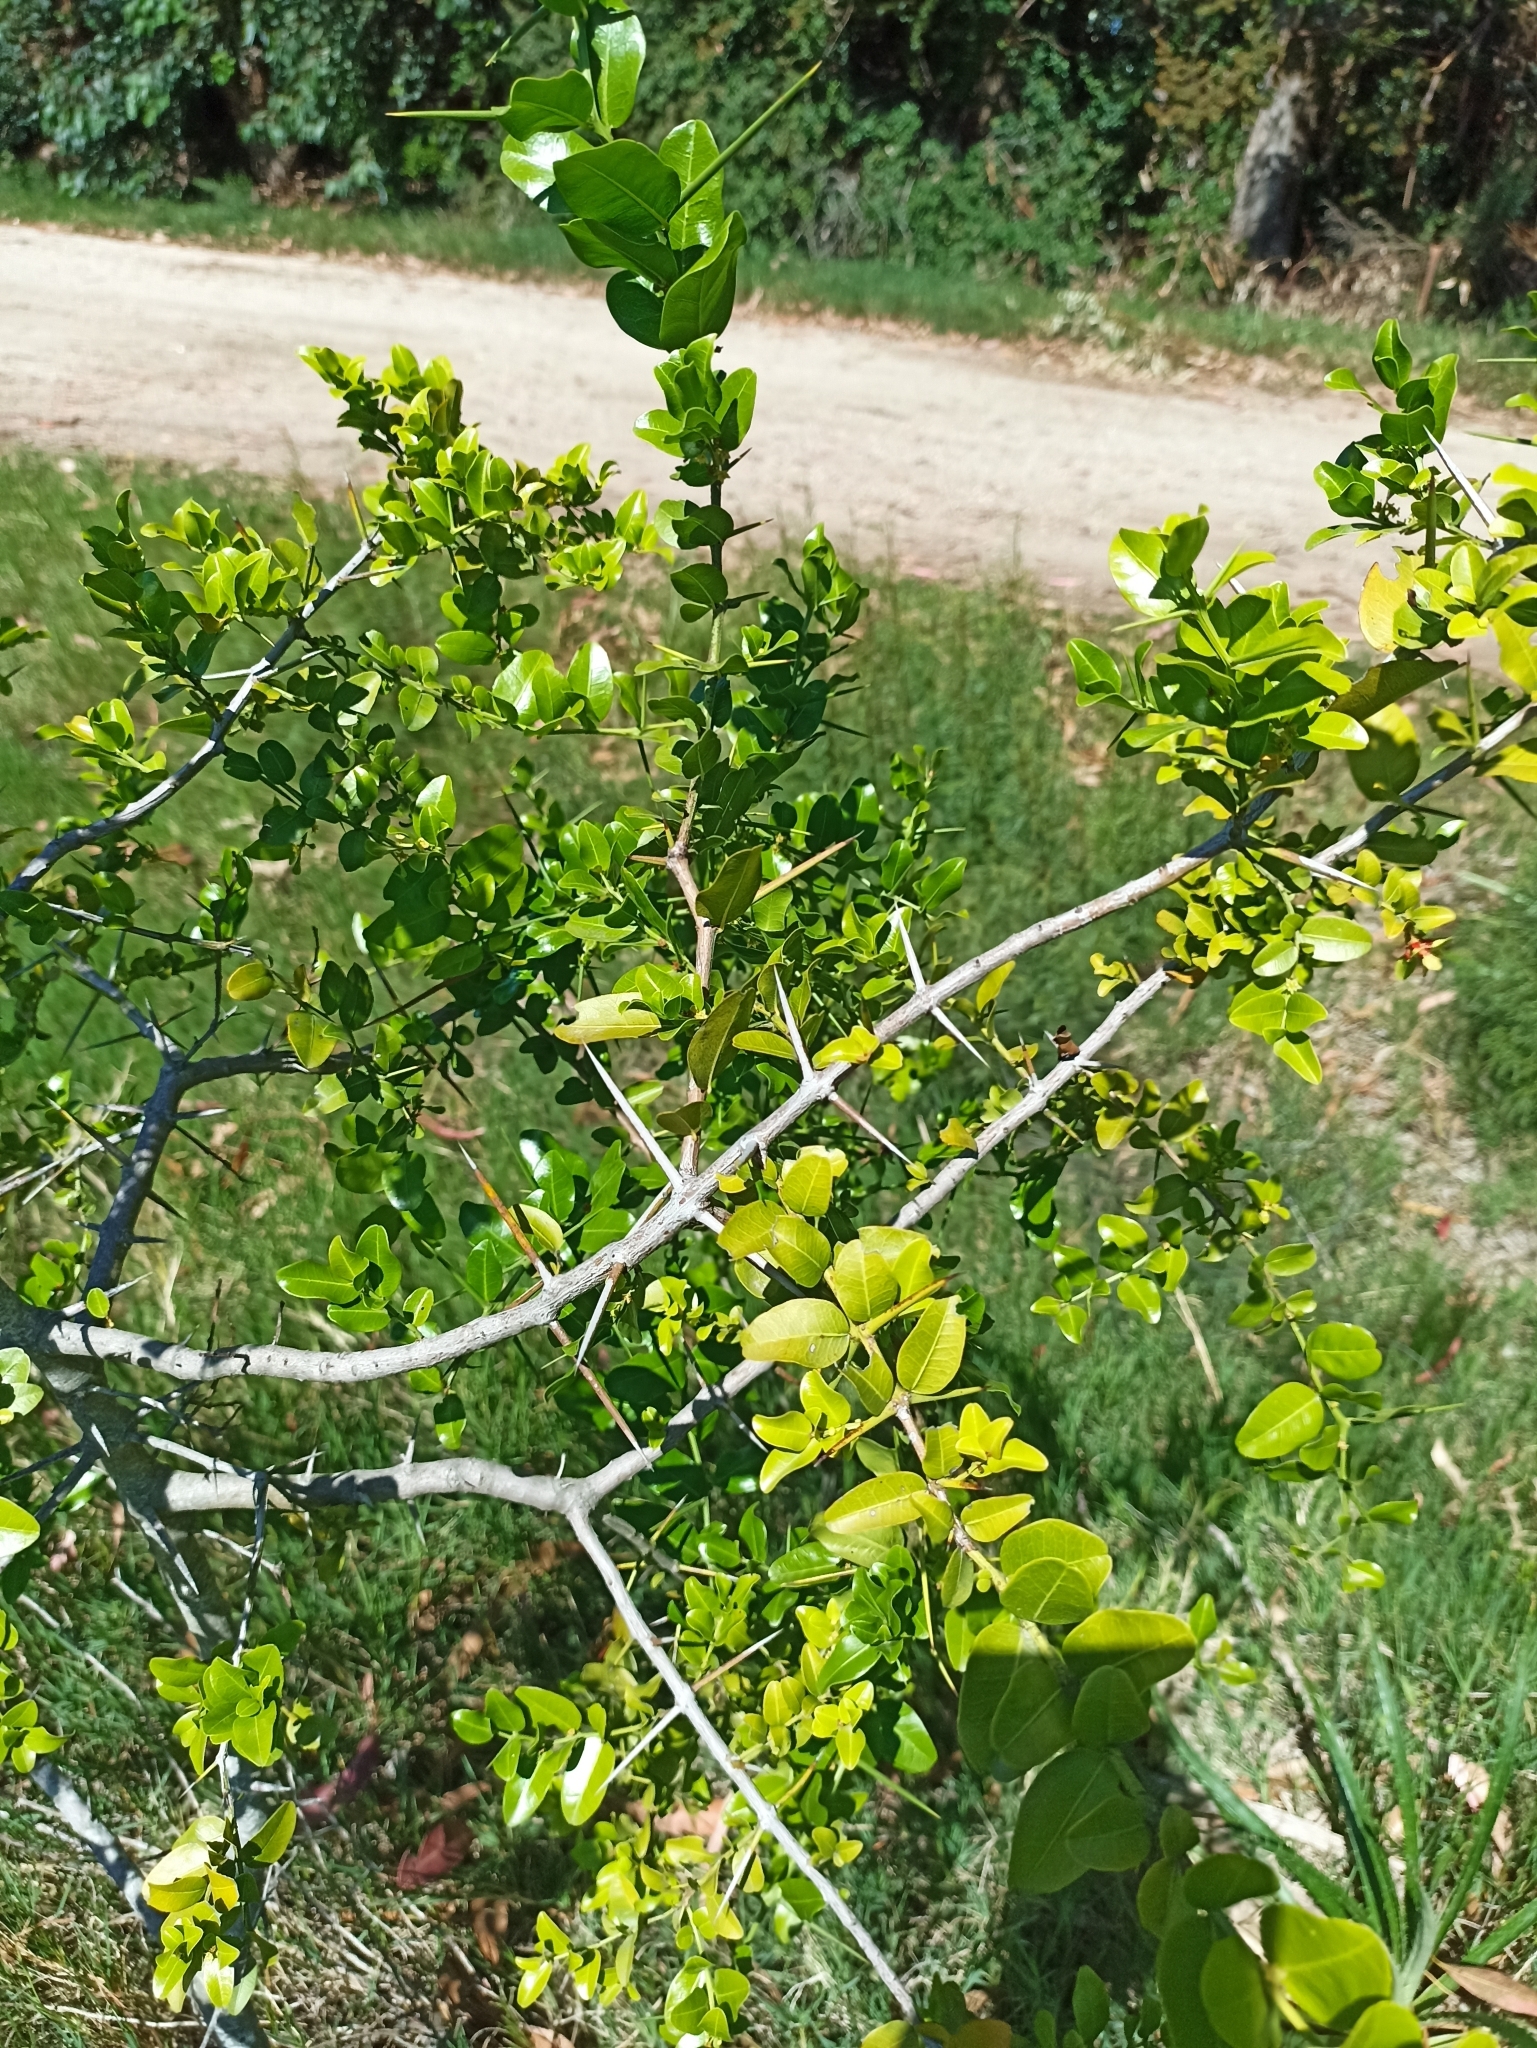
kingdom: Plantae
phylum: Tracheophyta
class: Magnoliopsida
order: Rosales
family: Rhamnaceae
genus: Scutia
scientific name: Scutia buxifolia
